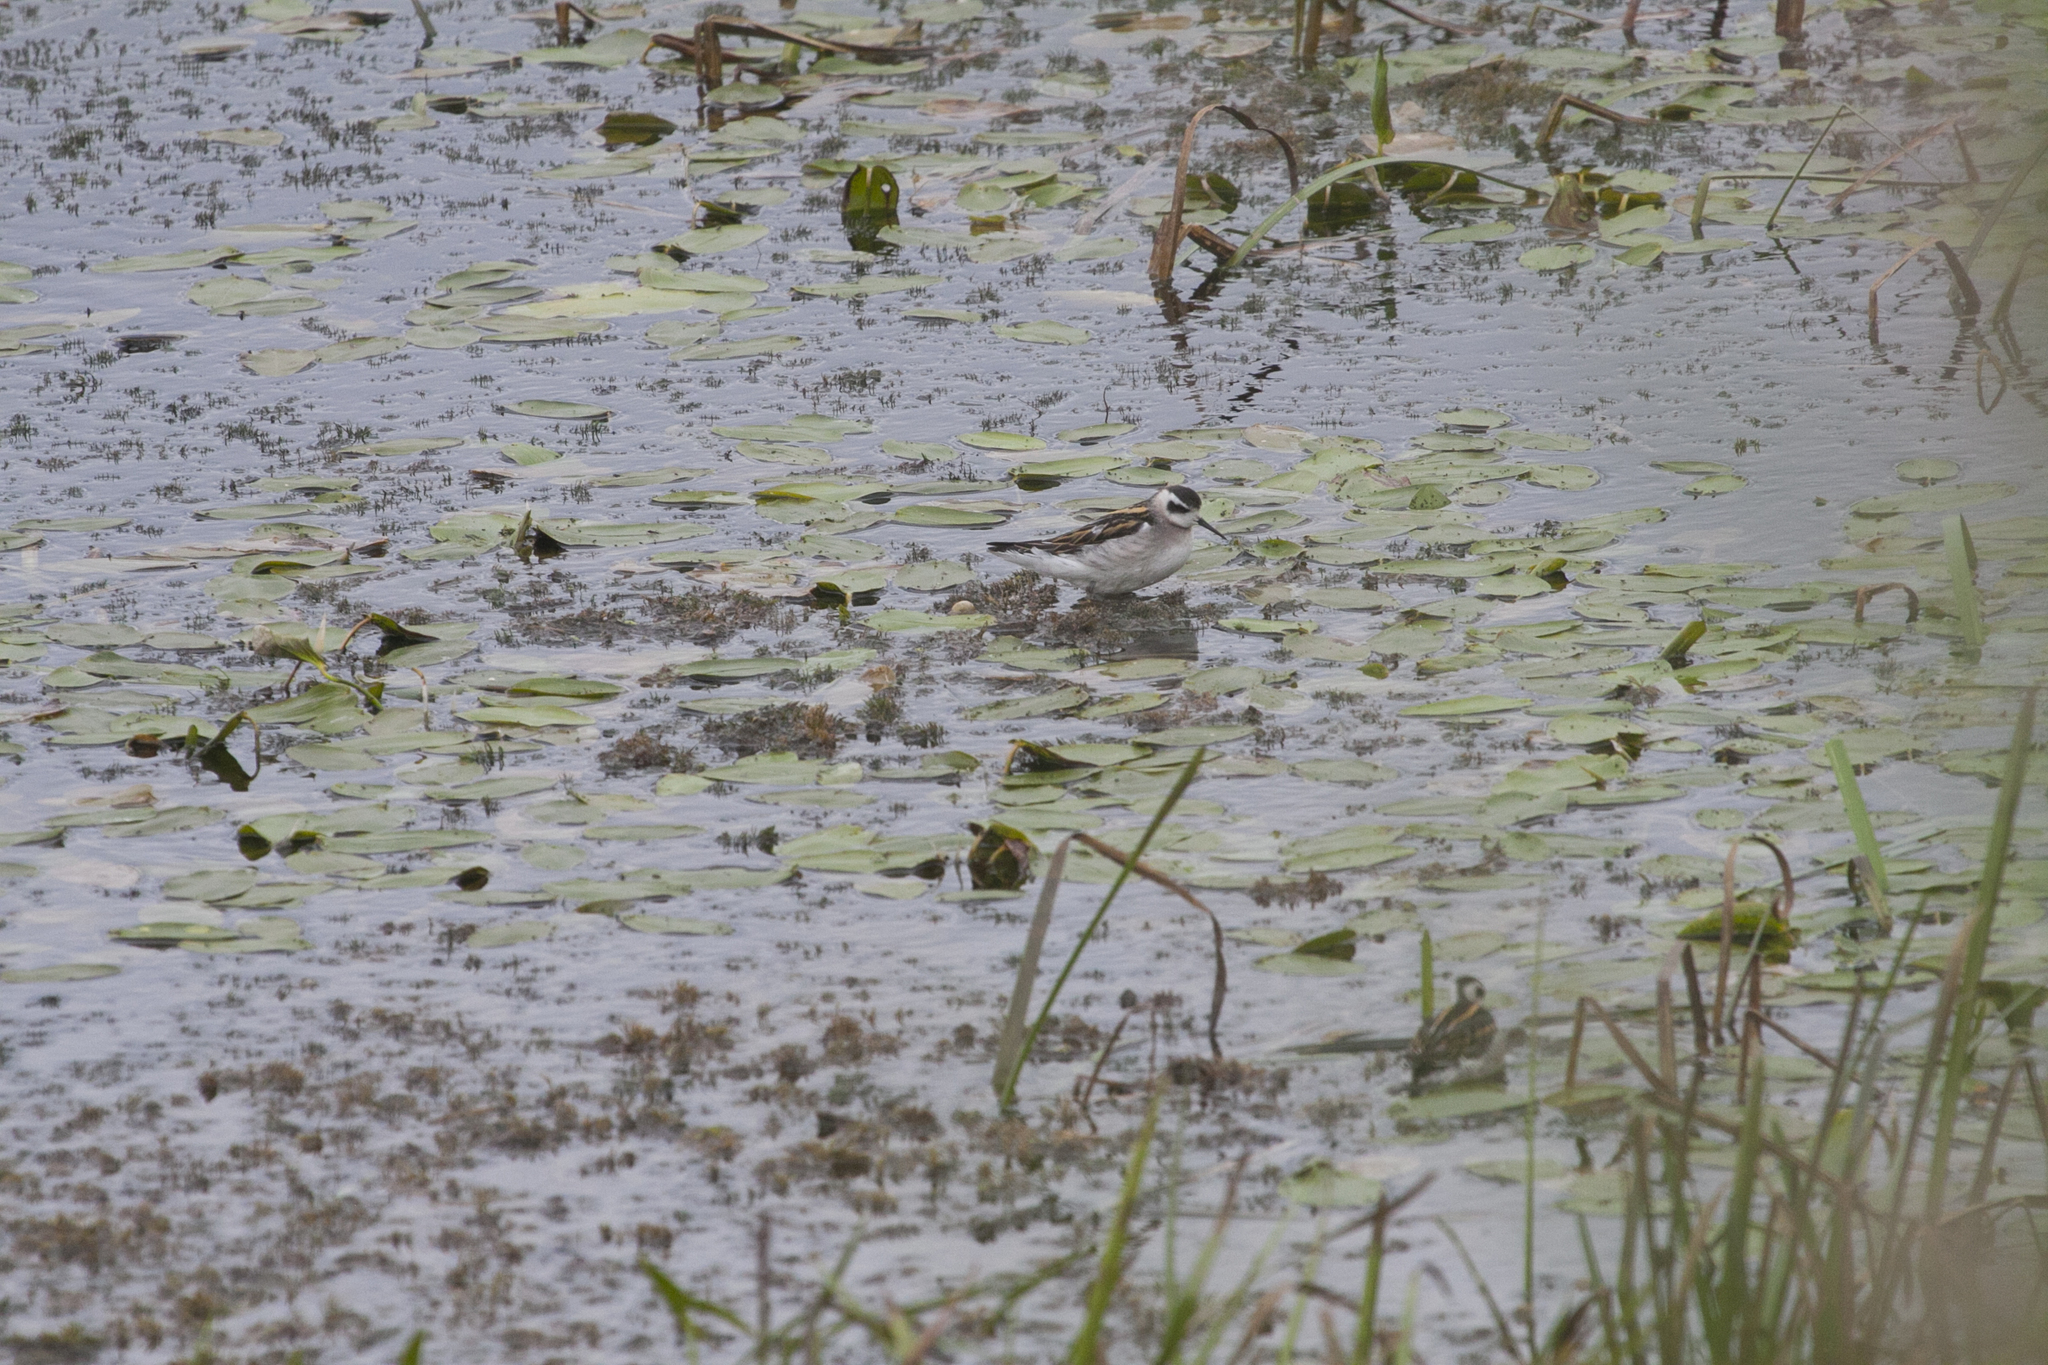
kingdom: Animalia
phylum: Chordata
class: Aves
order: Charadriiformes
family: Scolopacidae
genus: Phalaropus
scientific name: Phalaropus lobatus
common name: Red-necked phalarope
